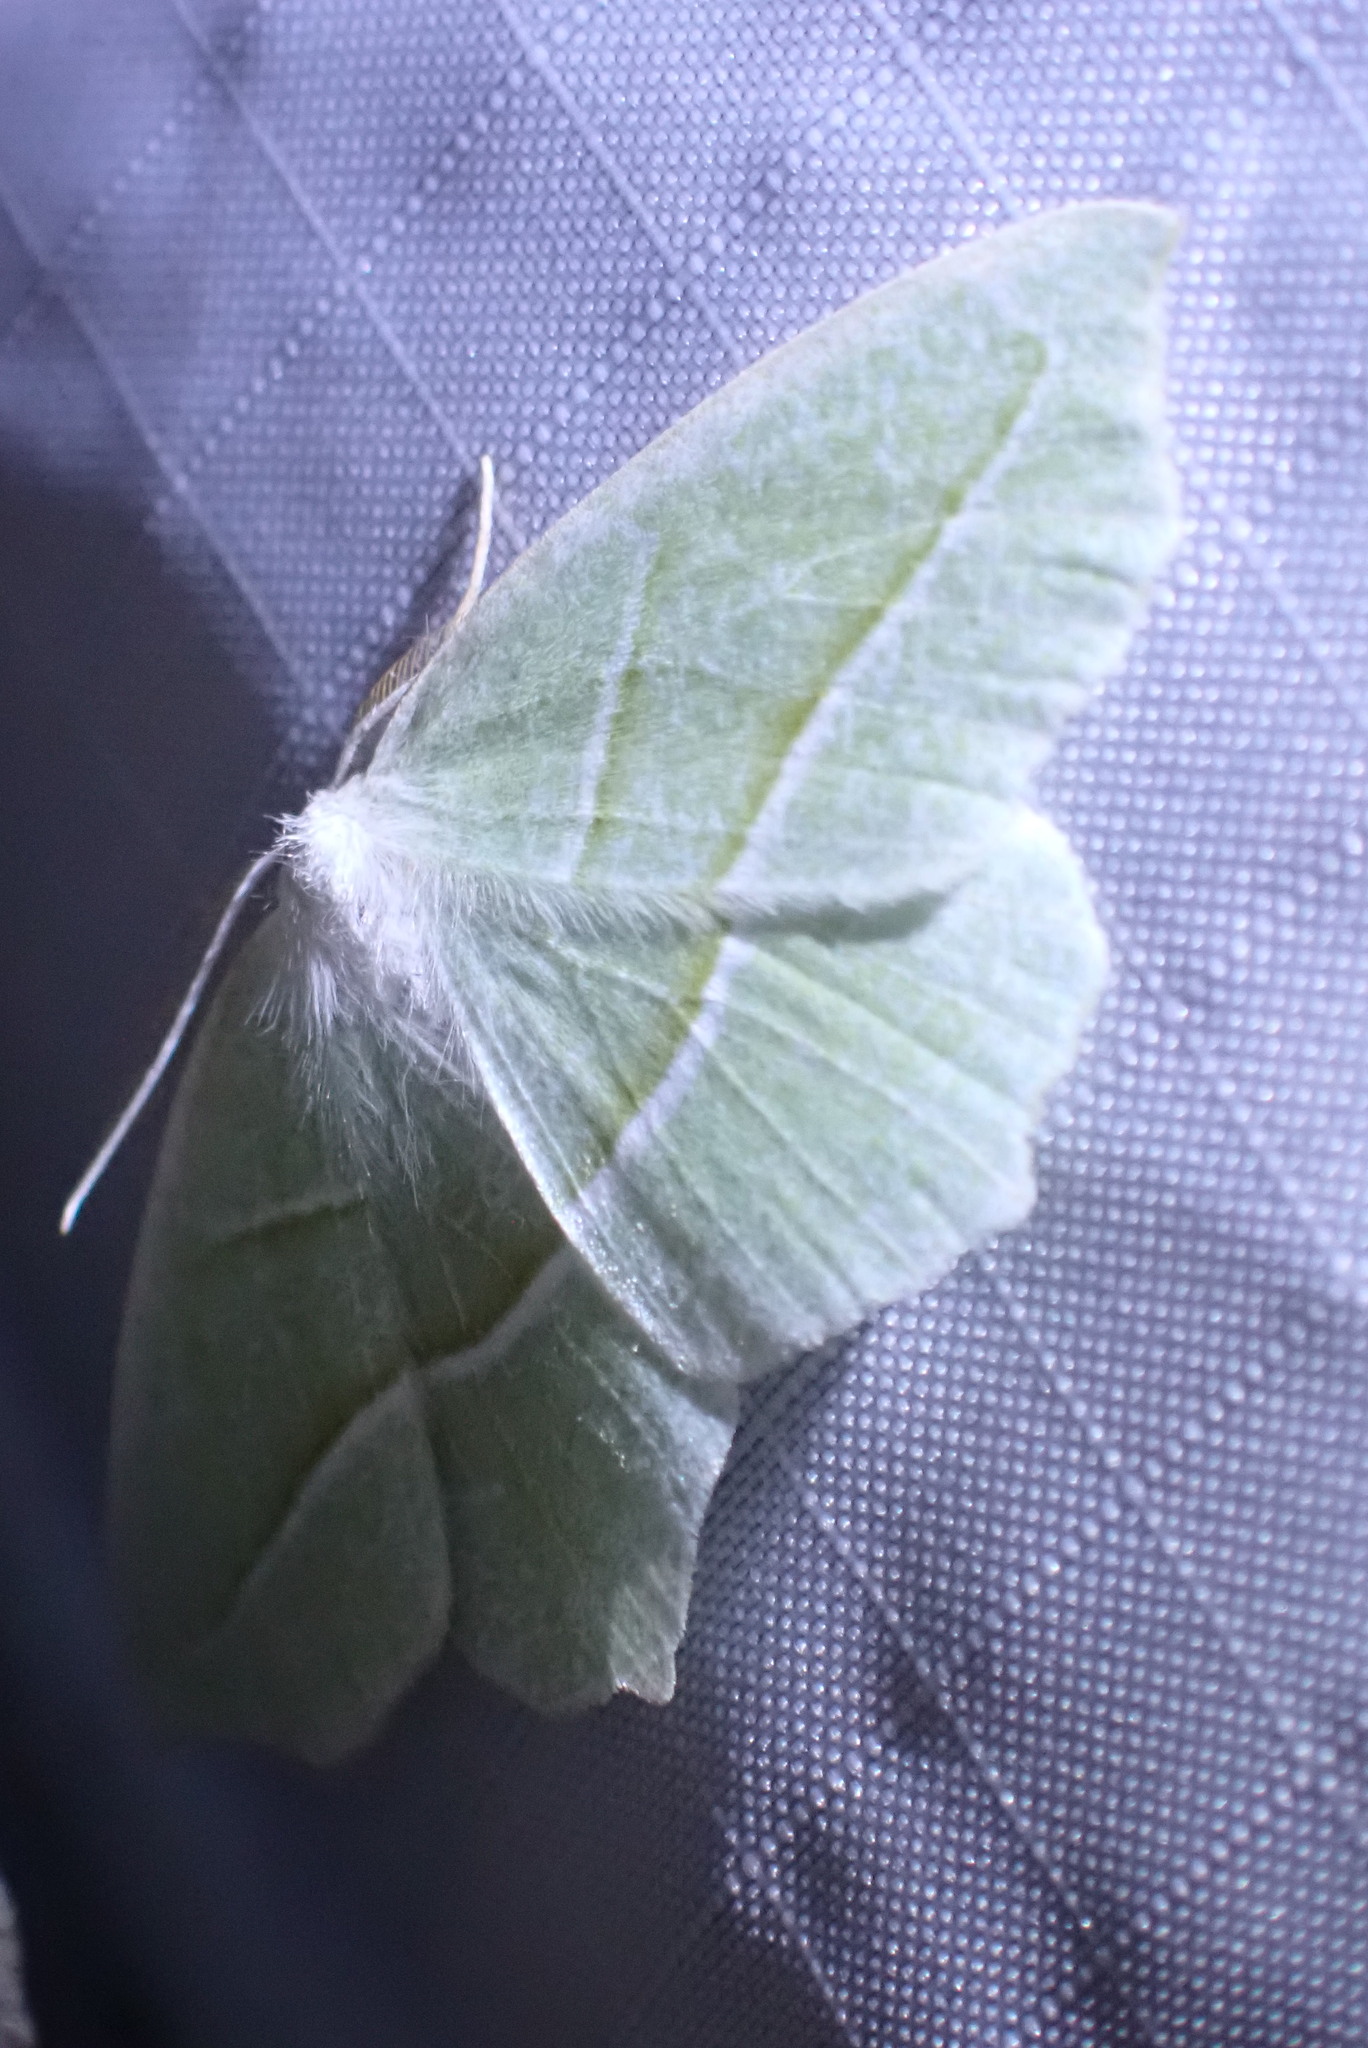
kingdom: Animalia
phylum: Arthropoda
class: Insecta
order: Lepidoptera
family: Geometridae
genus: Campaea
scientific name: Campaea perlata
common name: Fringed looper
